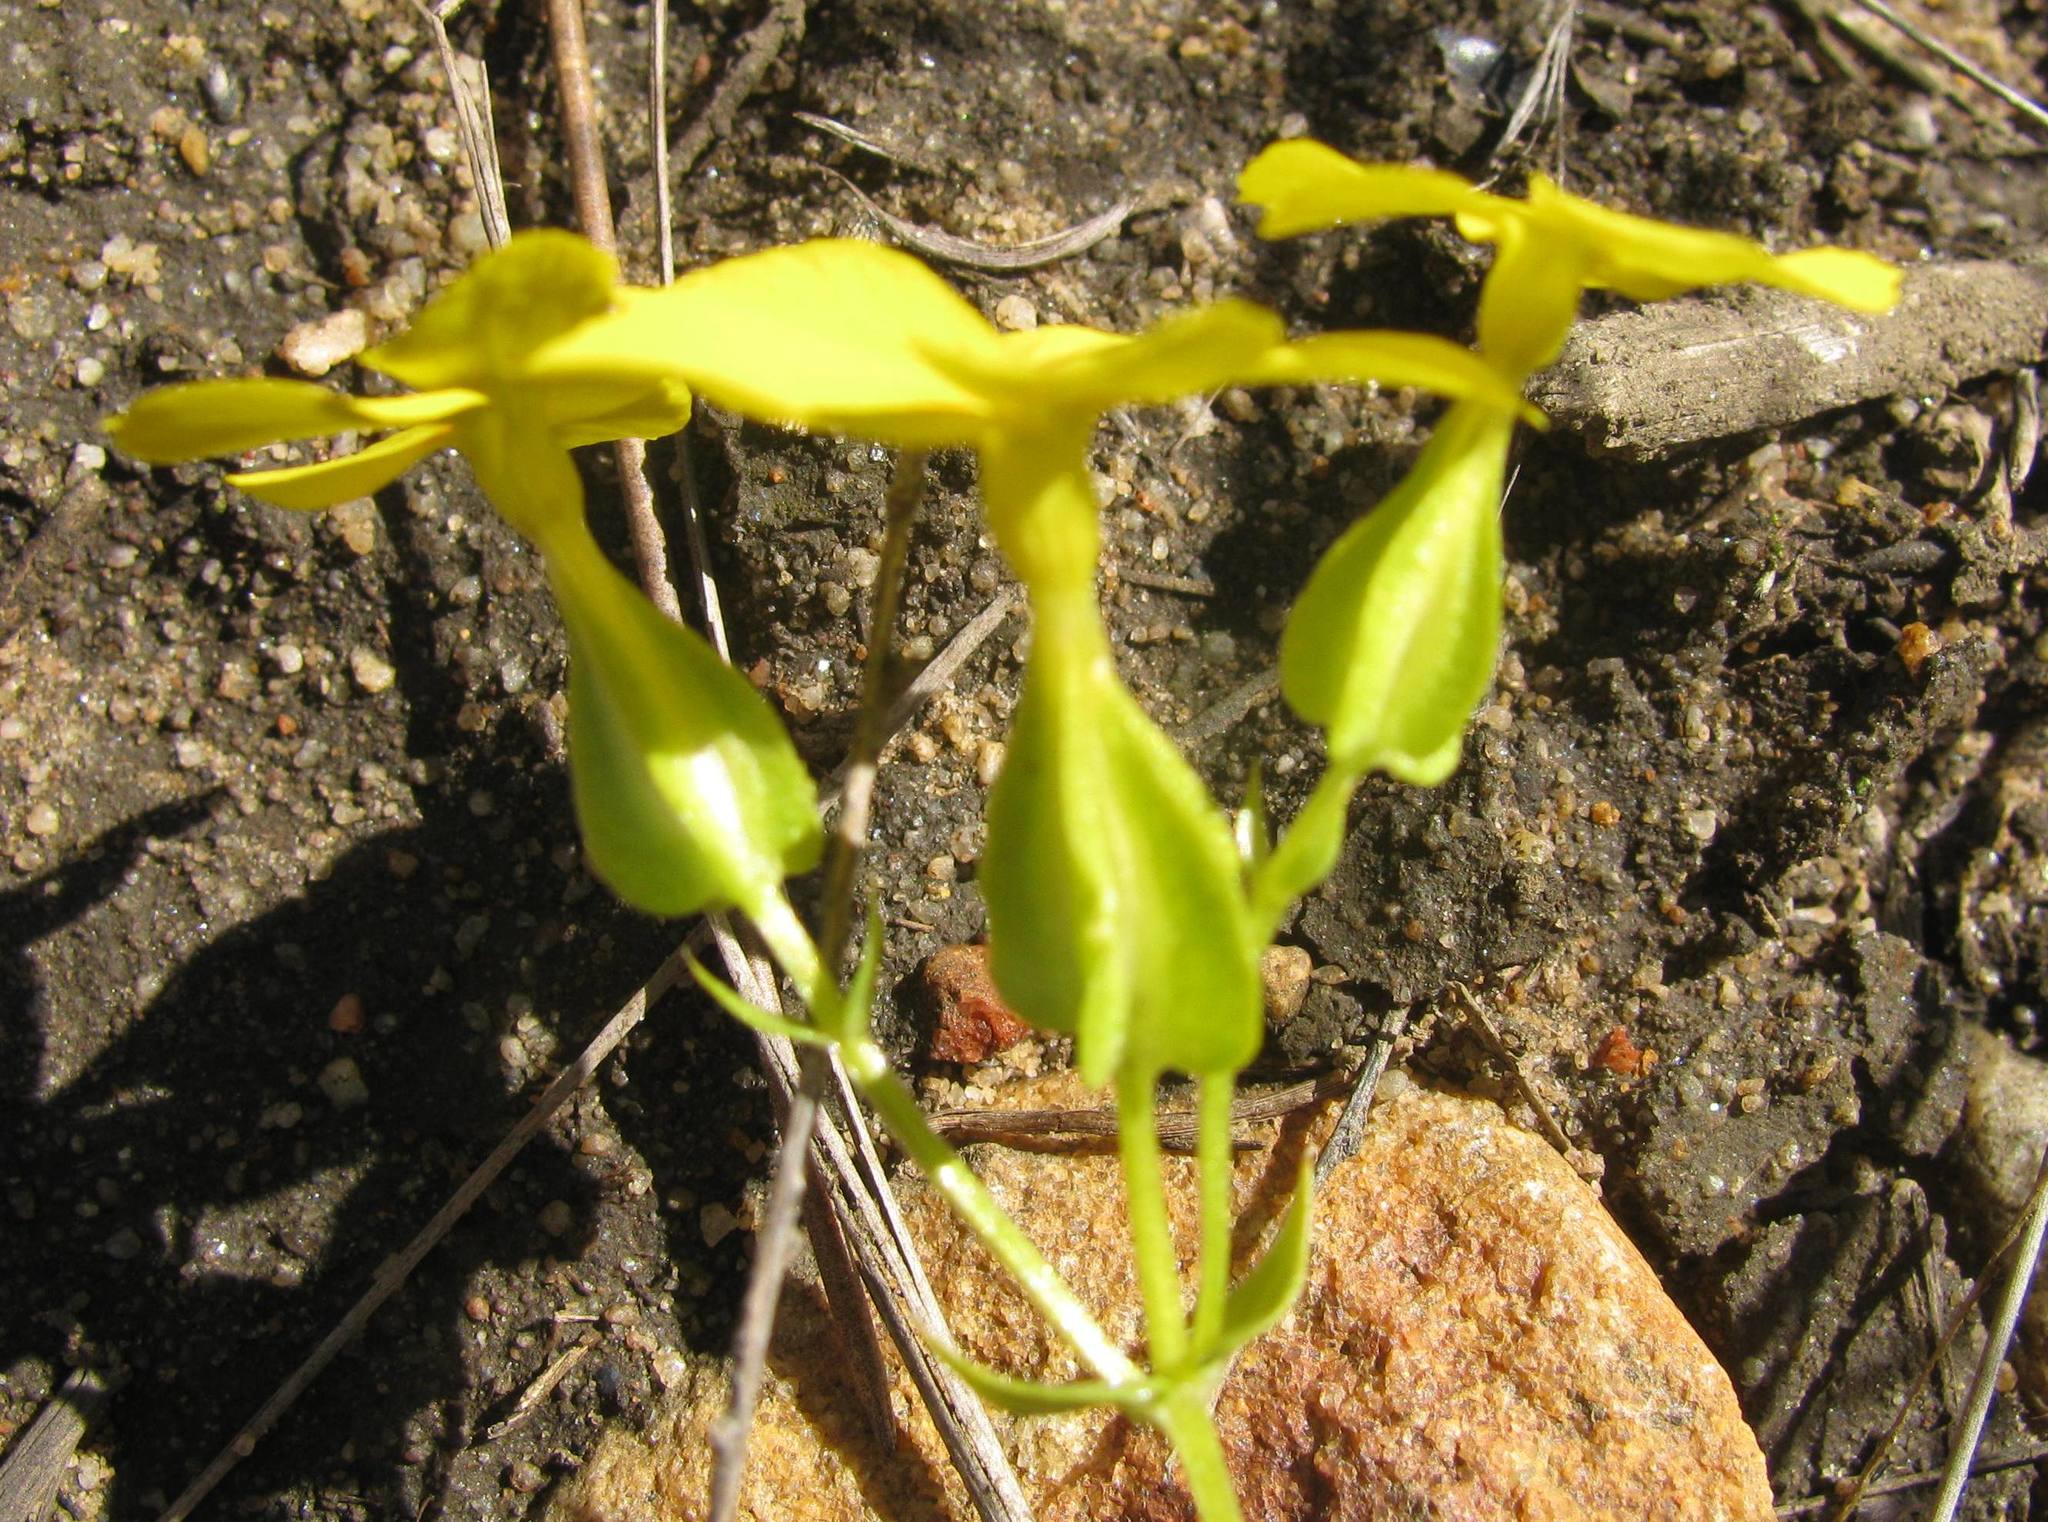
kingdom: Plantae
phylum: Tracheophyta
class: Magnoliopsida
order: Gentianales
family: Gentianaceae
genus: Sebaea
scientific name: Sebaea exacoides
